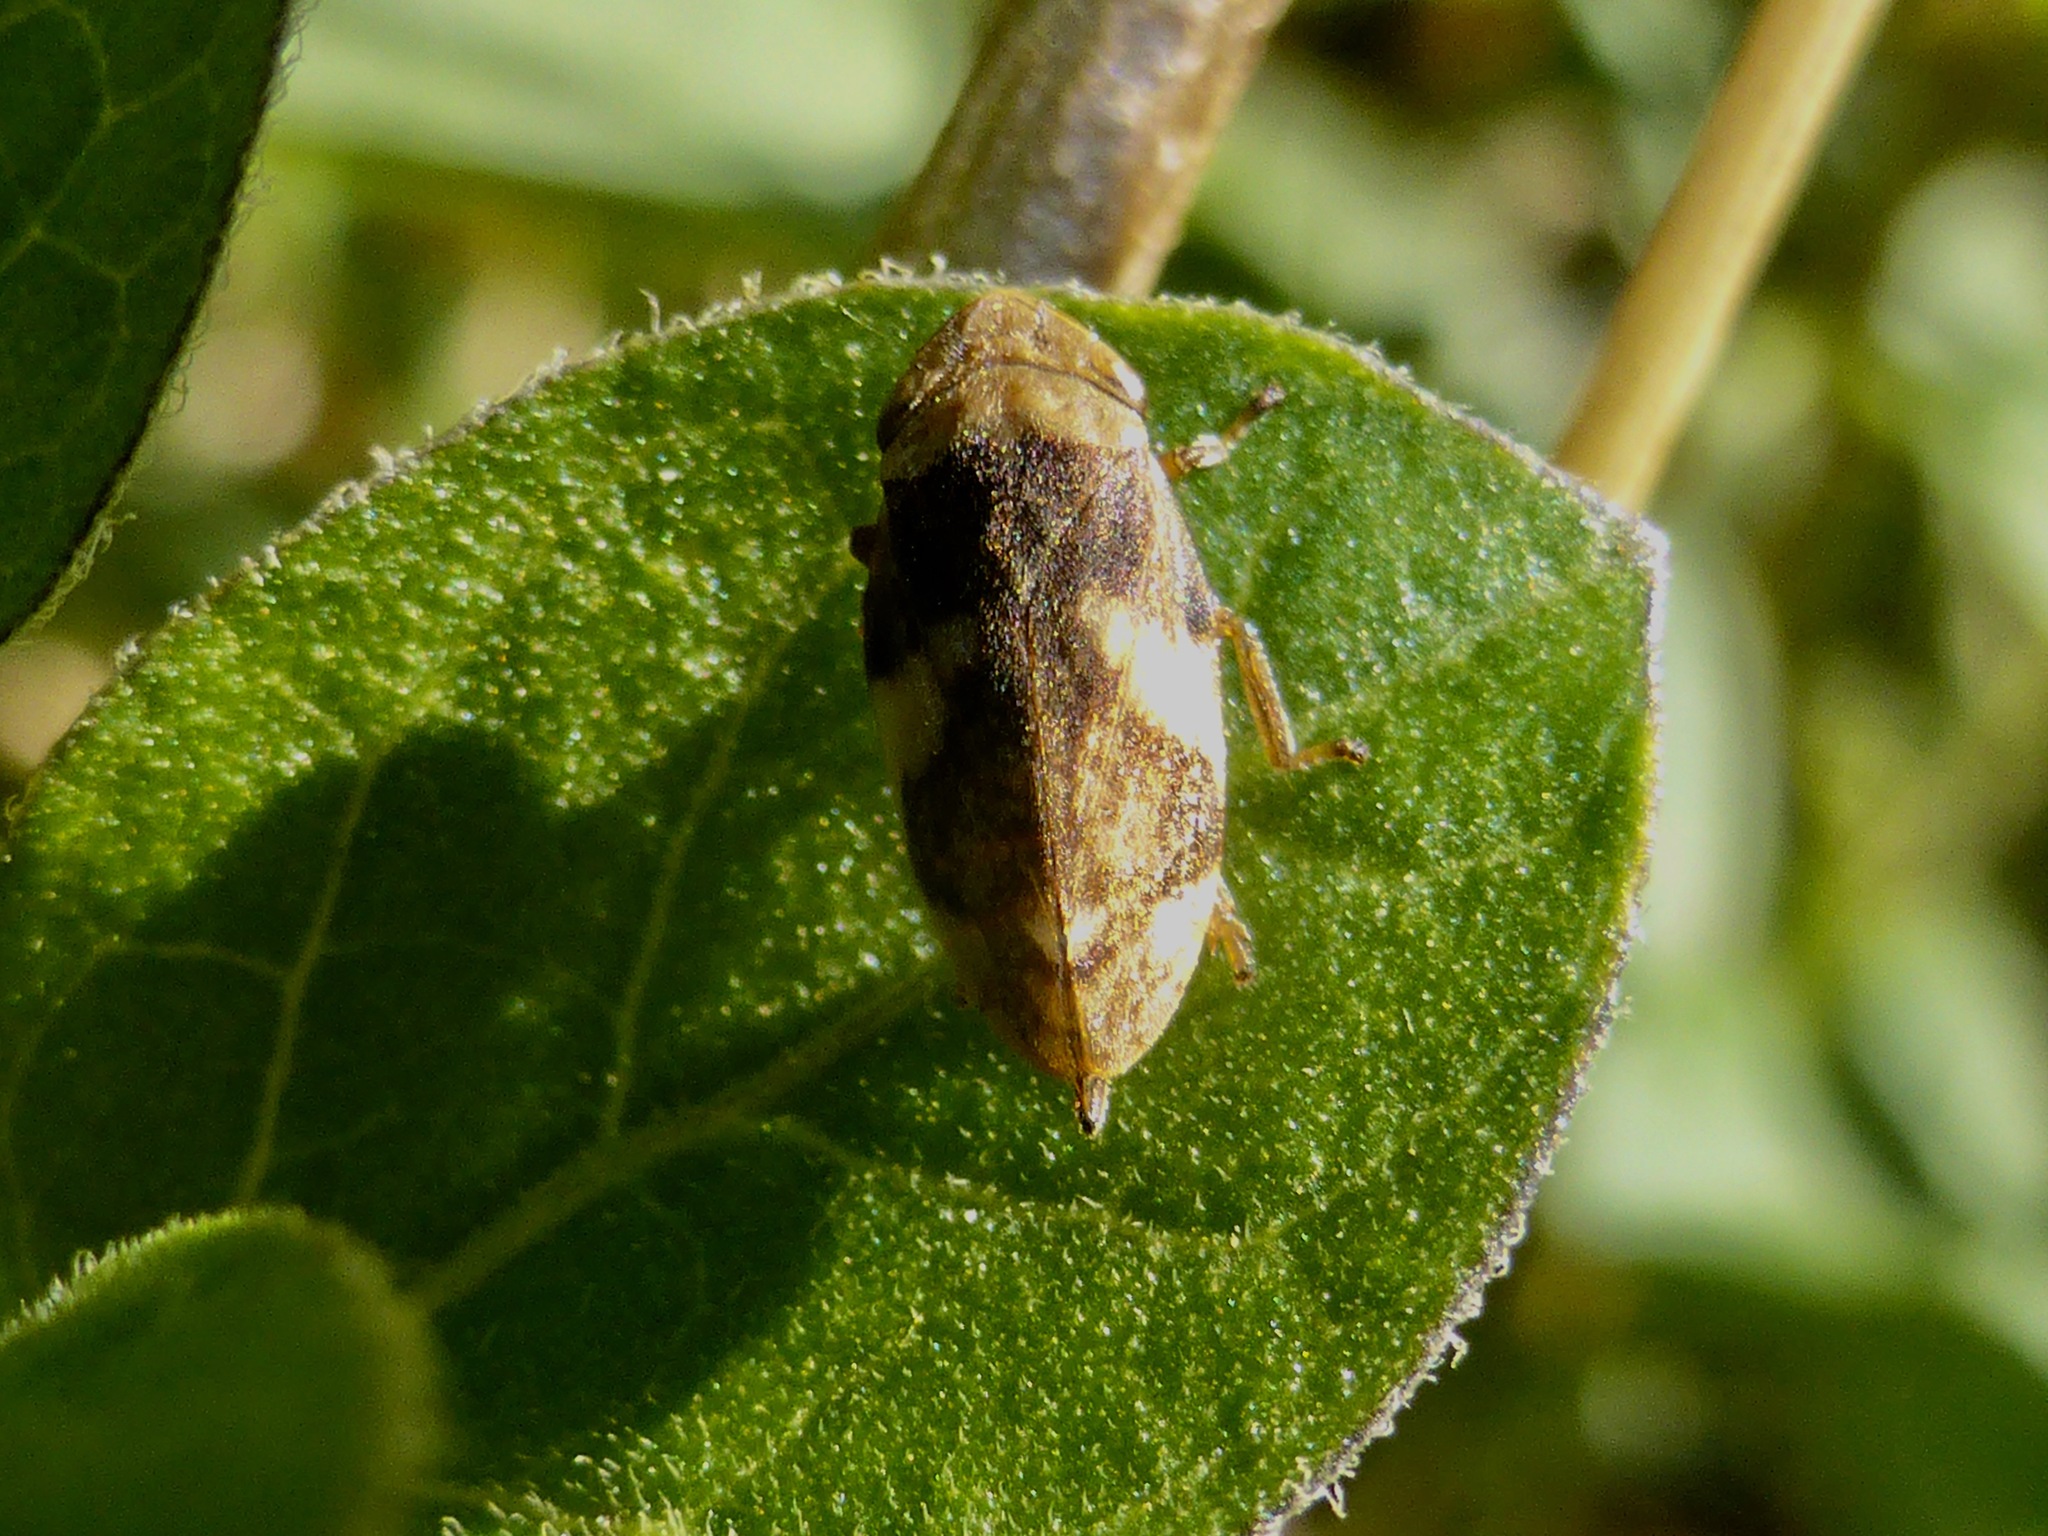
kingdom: Animalia
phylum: Arthropoda
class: Insecta
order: Hemiptera
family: Aphrophoridae
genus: Philaenus
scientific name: Philaenus spumarius
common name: Meadow spittlebug
